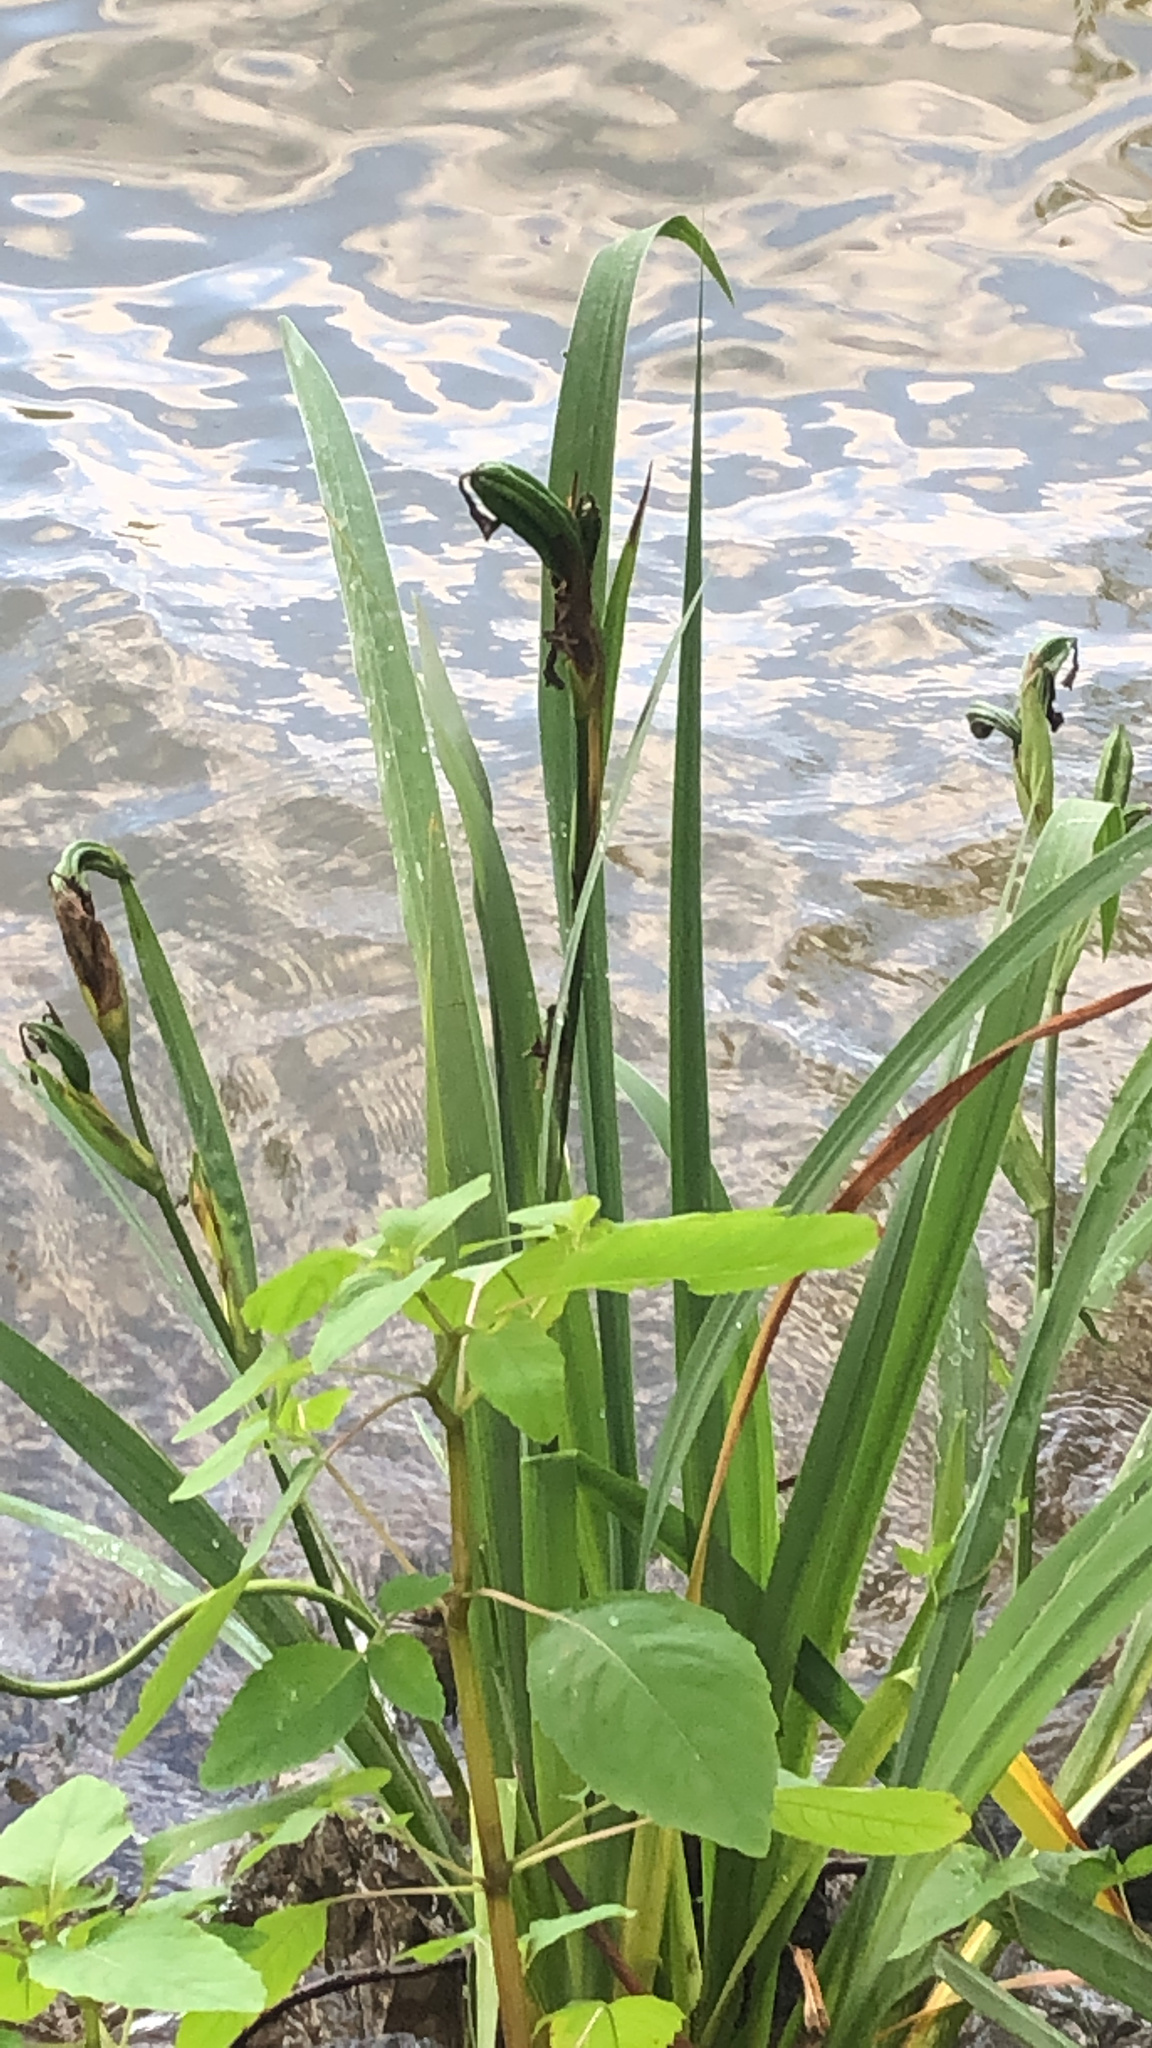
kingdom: Plantae
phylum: Tracheophyta
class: Liliopsida
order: Asparagales
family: Iridaceae
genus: Iris
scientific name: Iris pseudacorus
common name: Yellow flag
